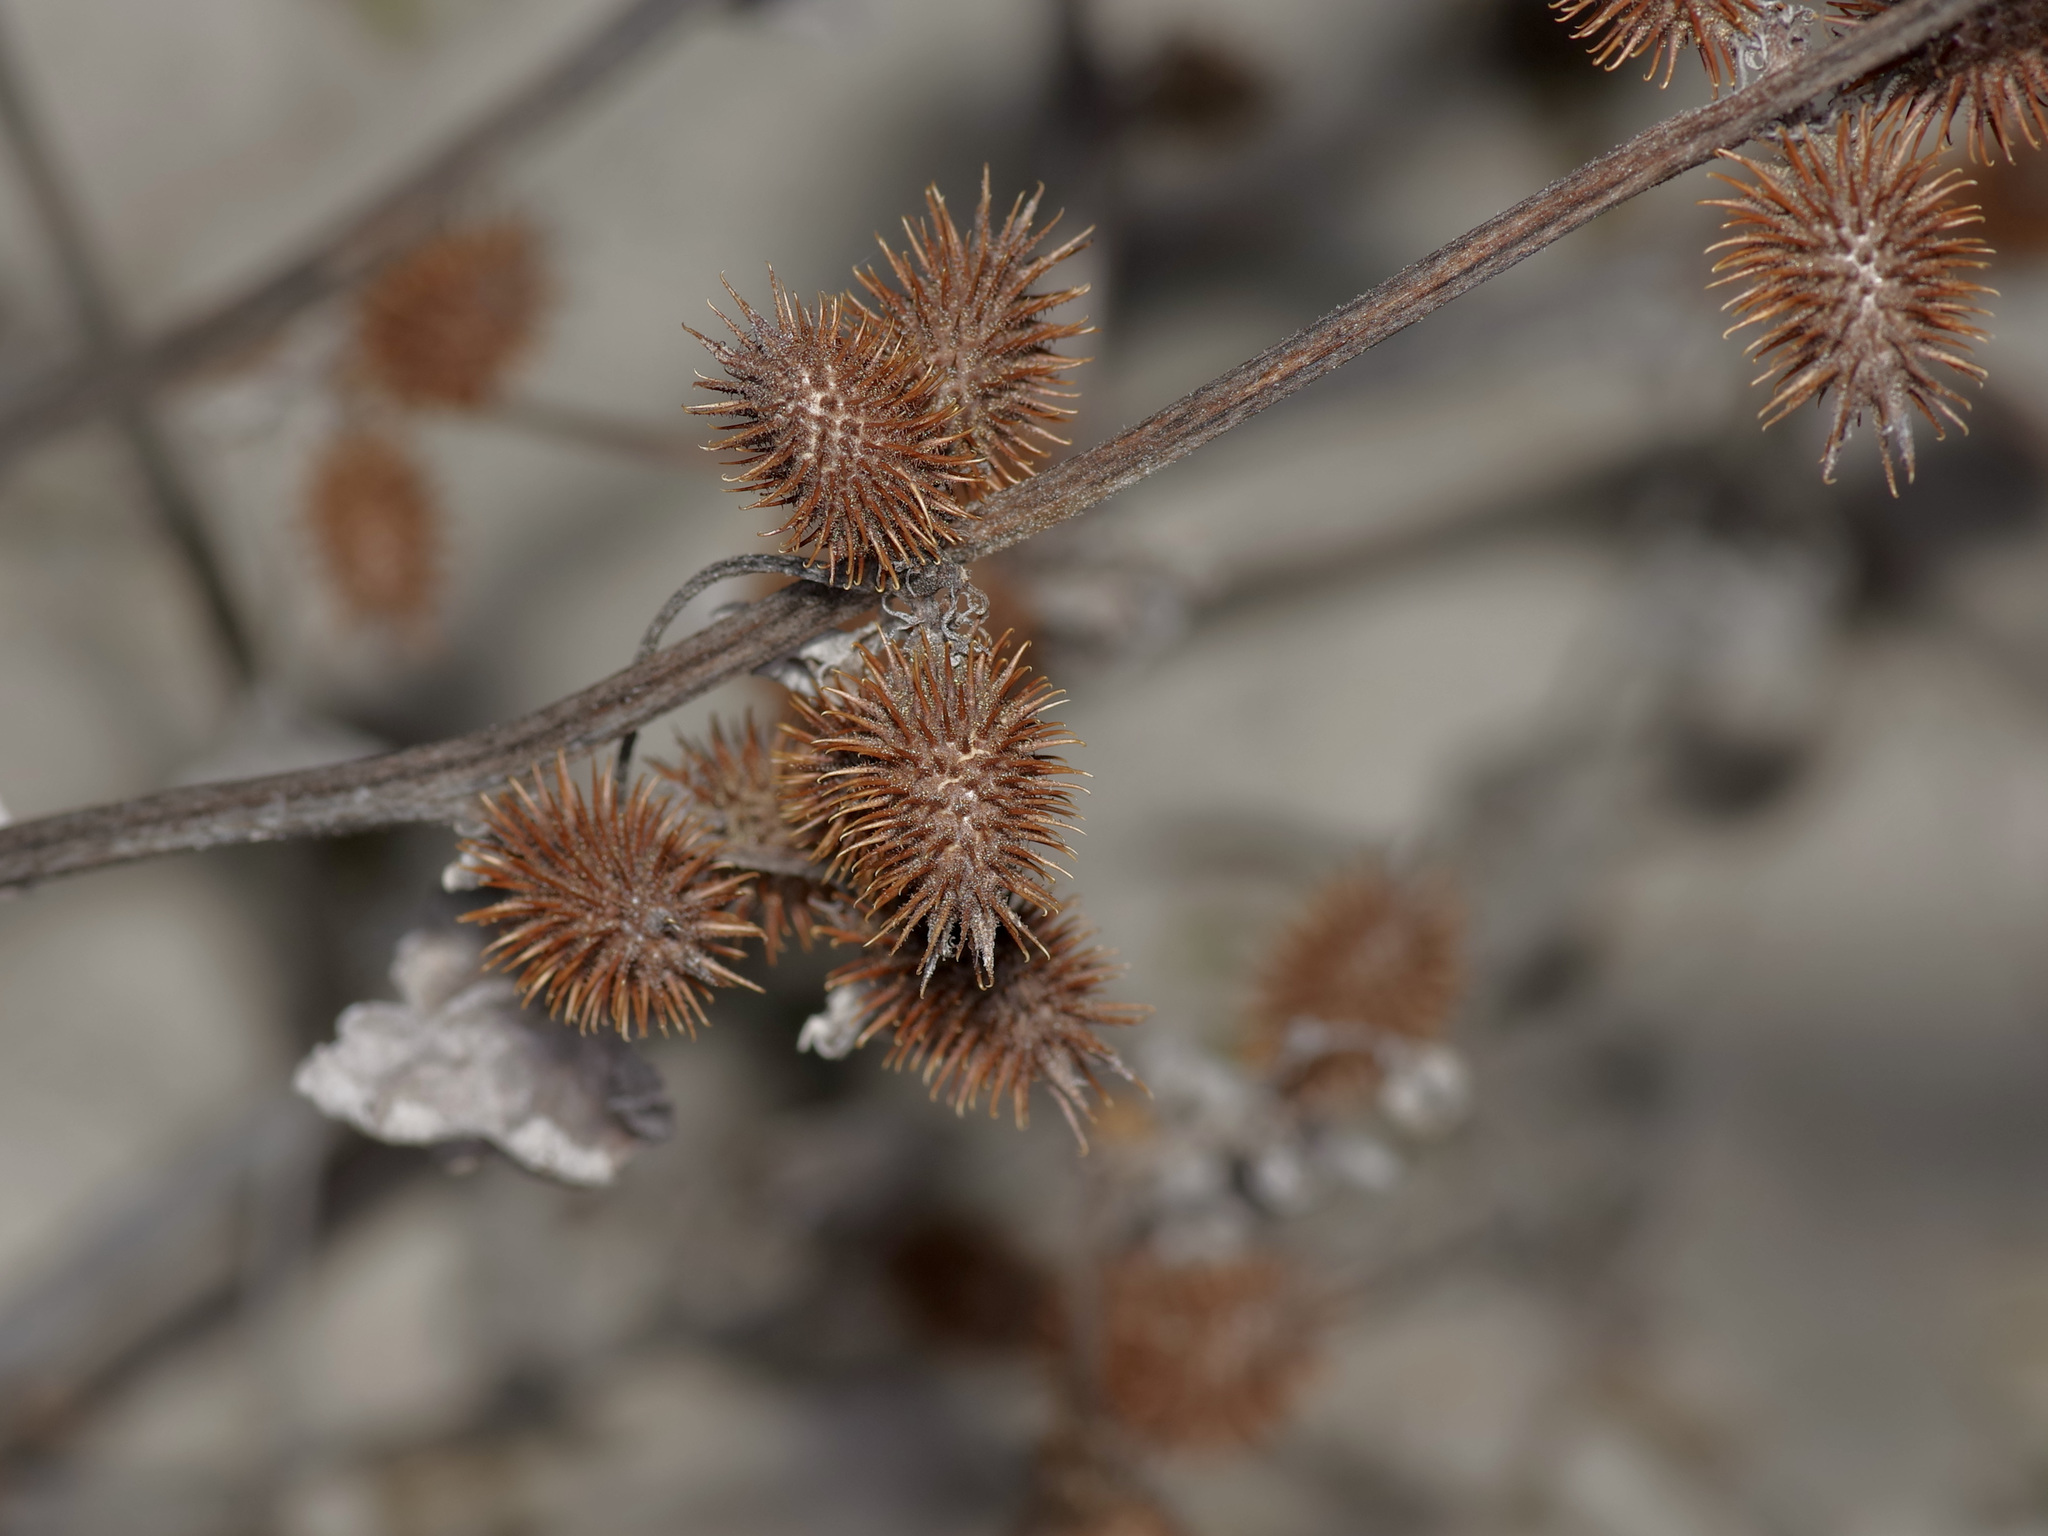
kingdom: Plantae
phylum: Tracheophyta
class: Magnoliopsida
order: Asterales
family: Asteraceae
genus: Xanthium
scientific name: Xanthium strumarium
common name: Rough cocklebur
